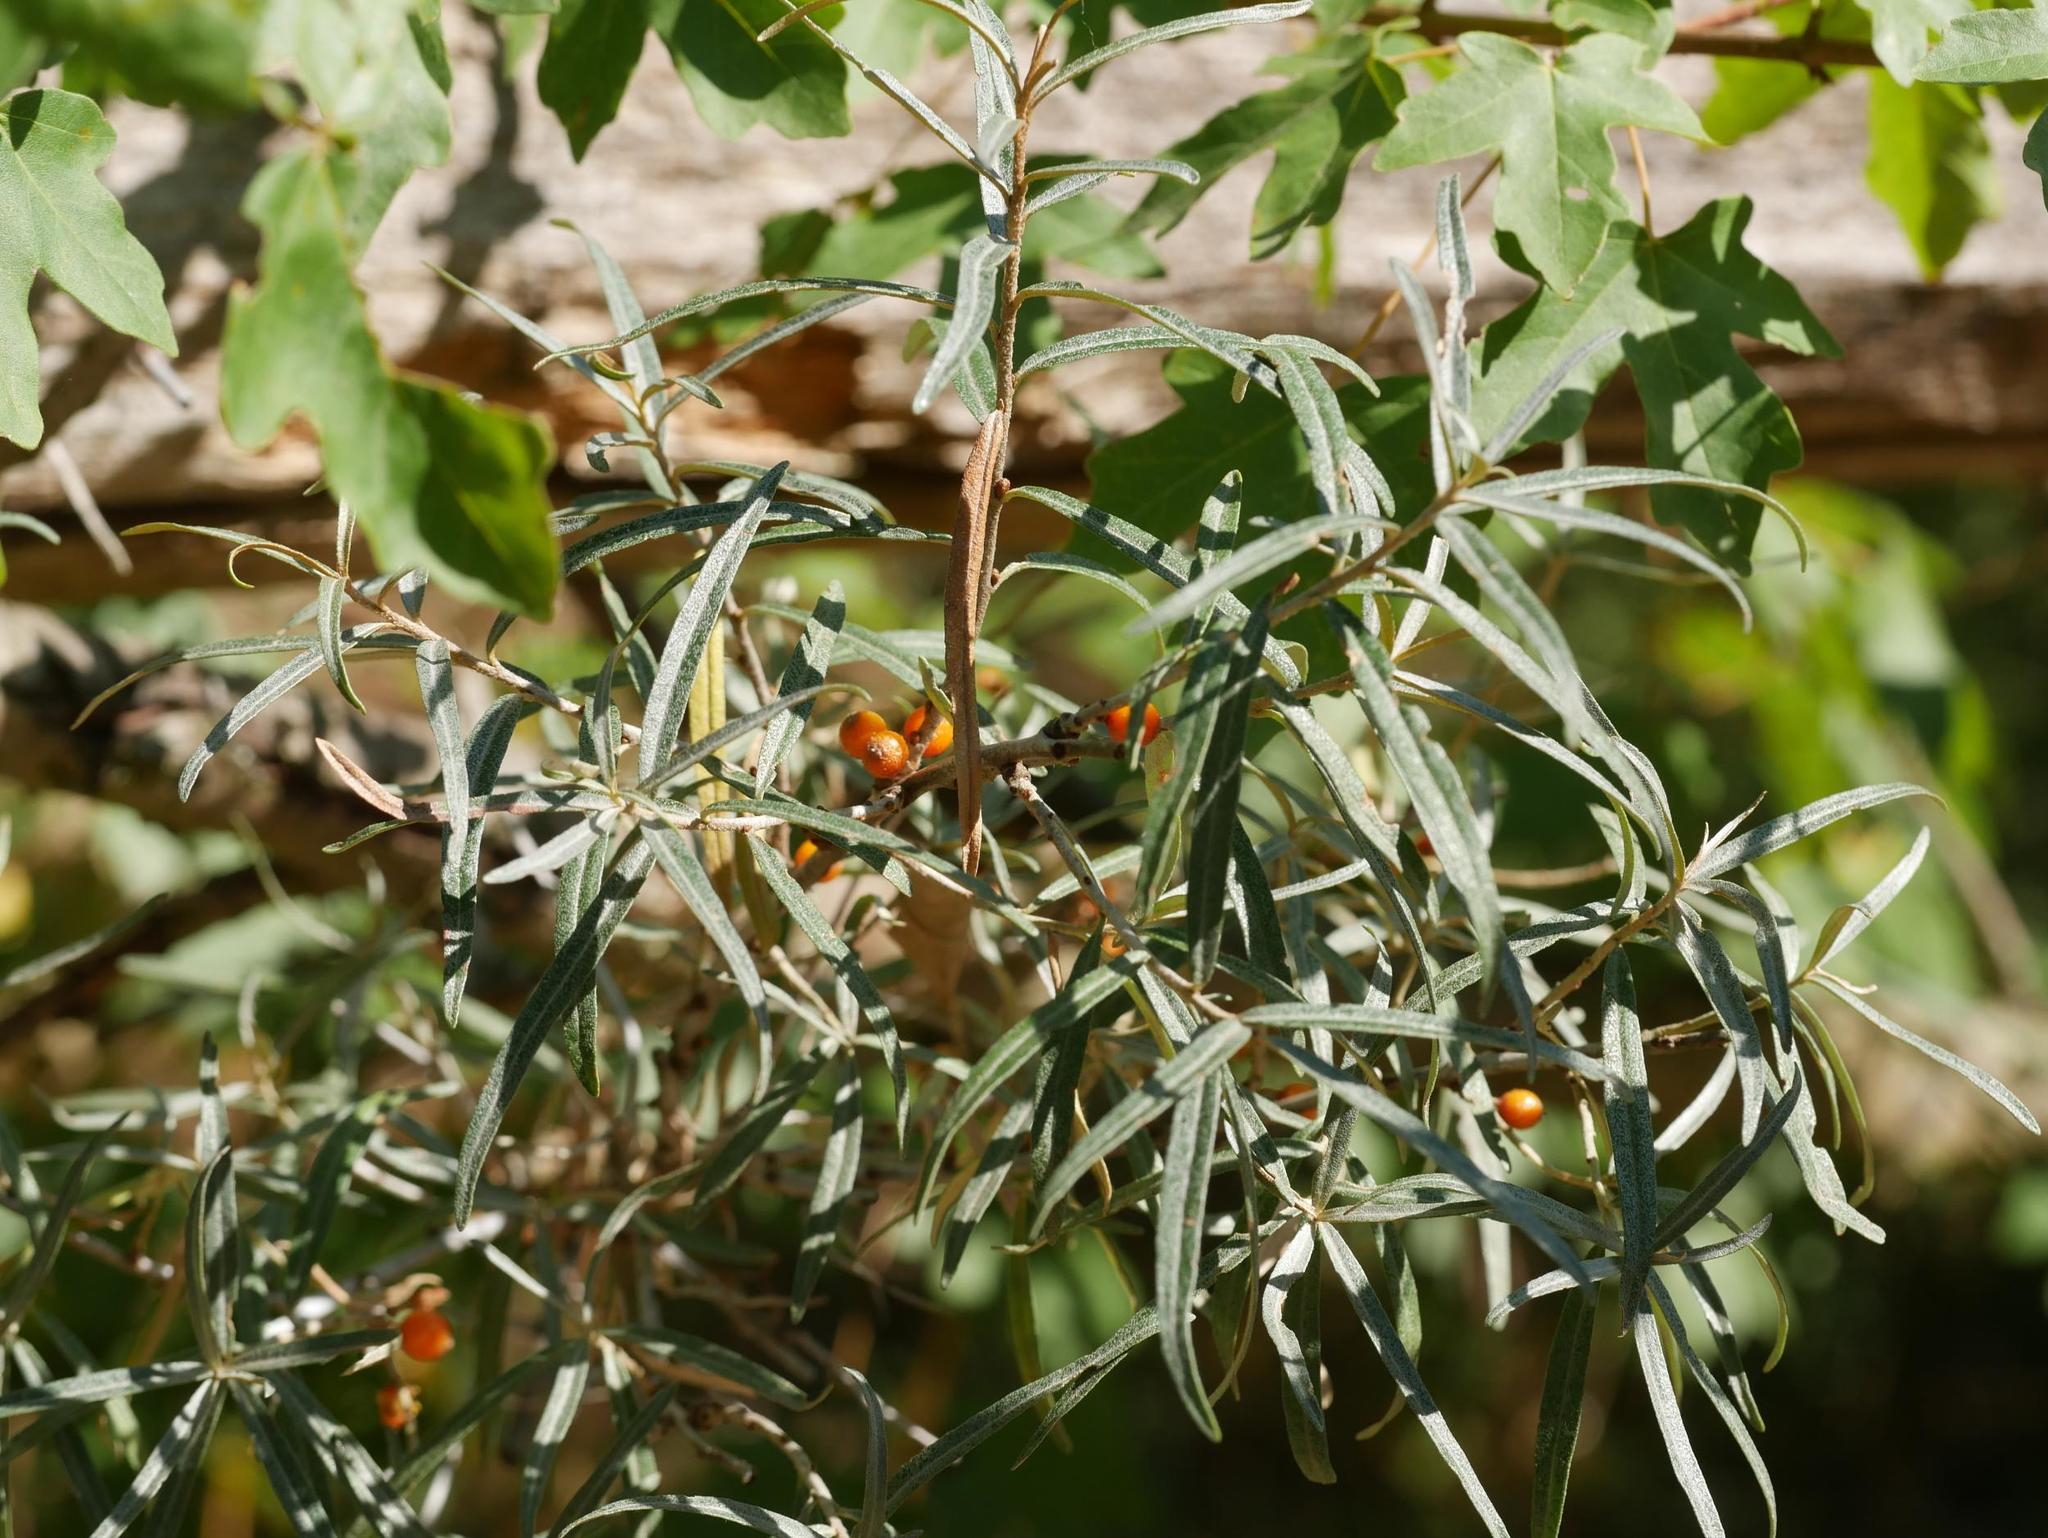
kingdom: Plantae
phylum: Tracheophyta
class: Magnoliopsida
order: Rosales
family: Elaeagnaceae
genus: Hippophae
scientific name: Hippophae rhamnoides
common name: Sea-buckthorn
